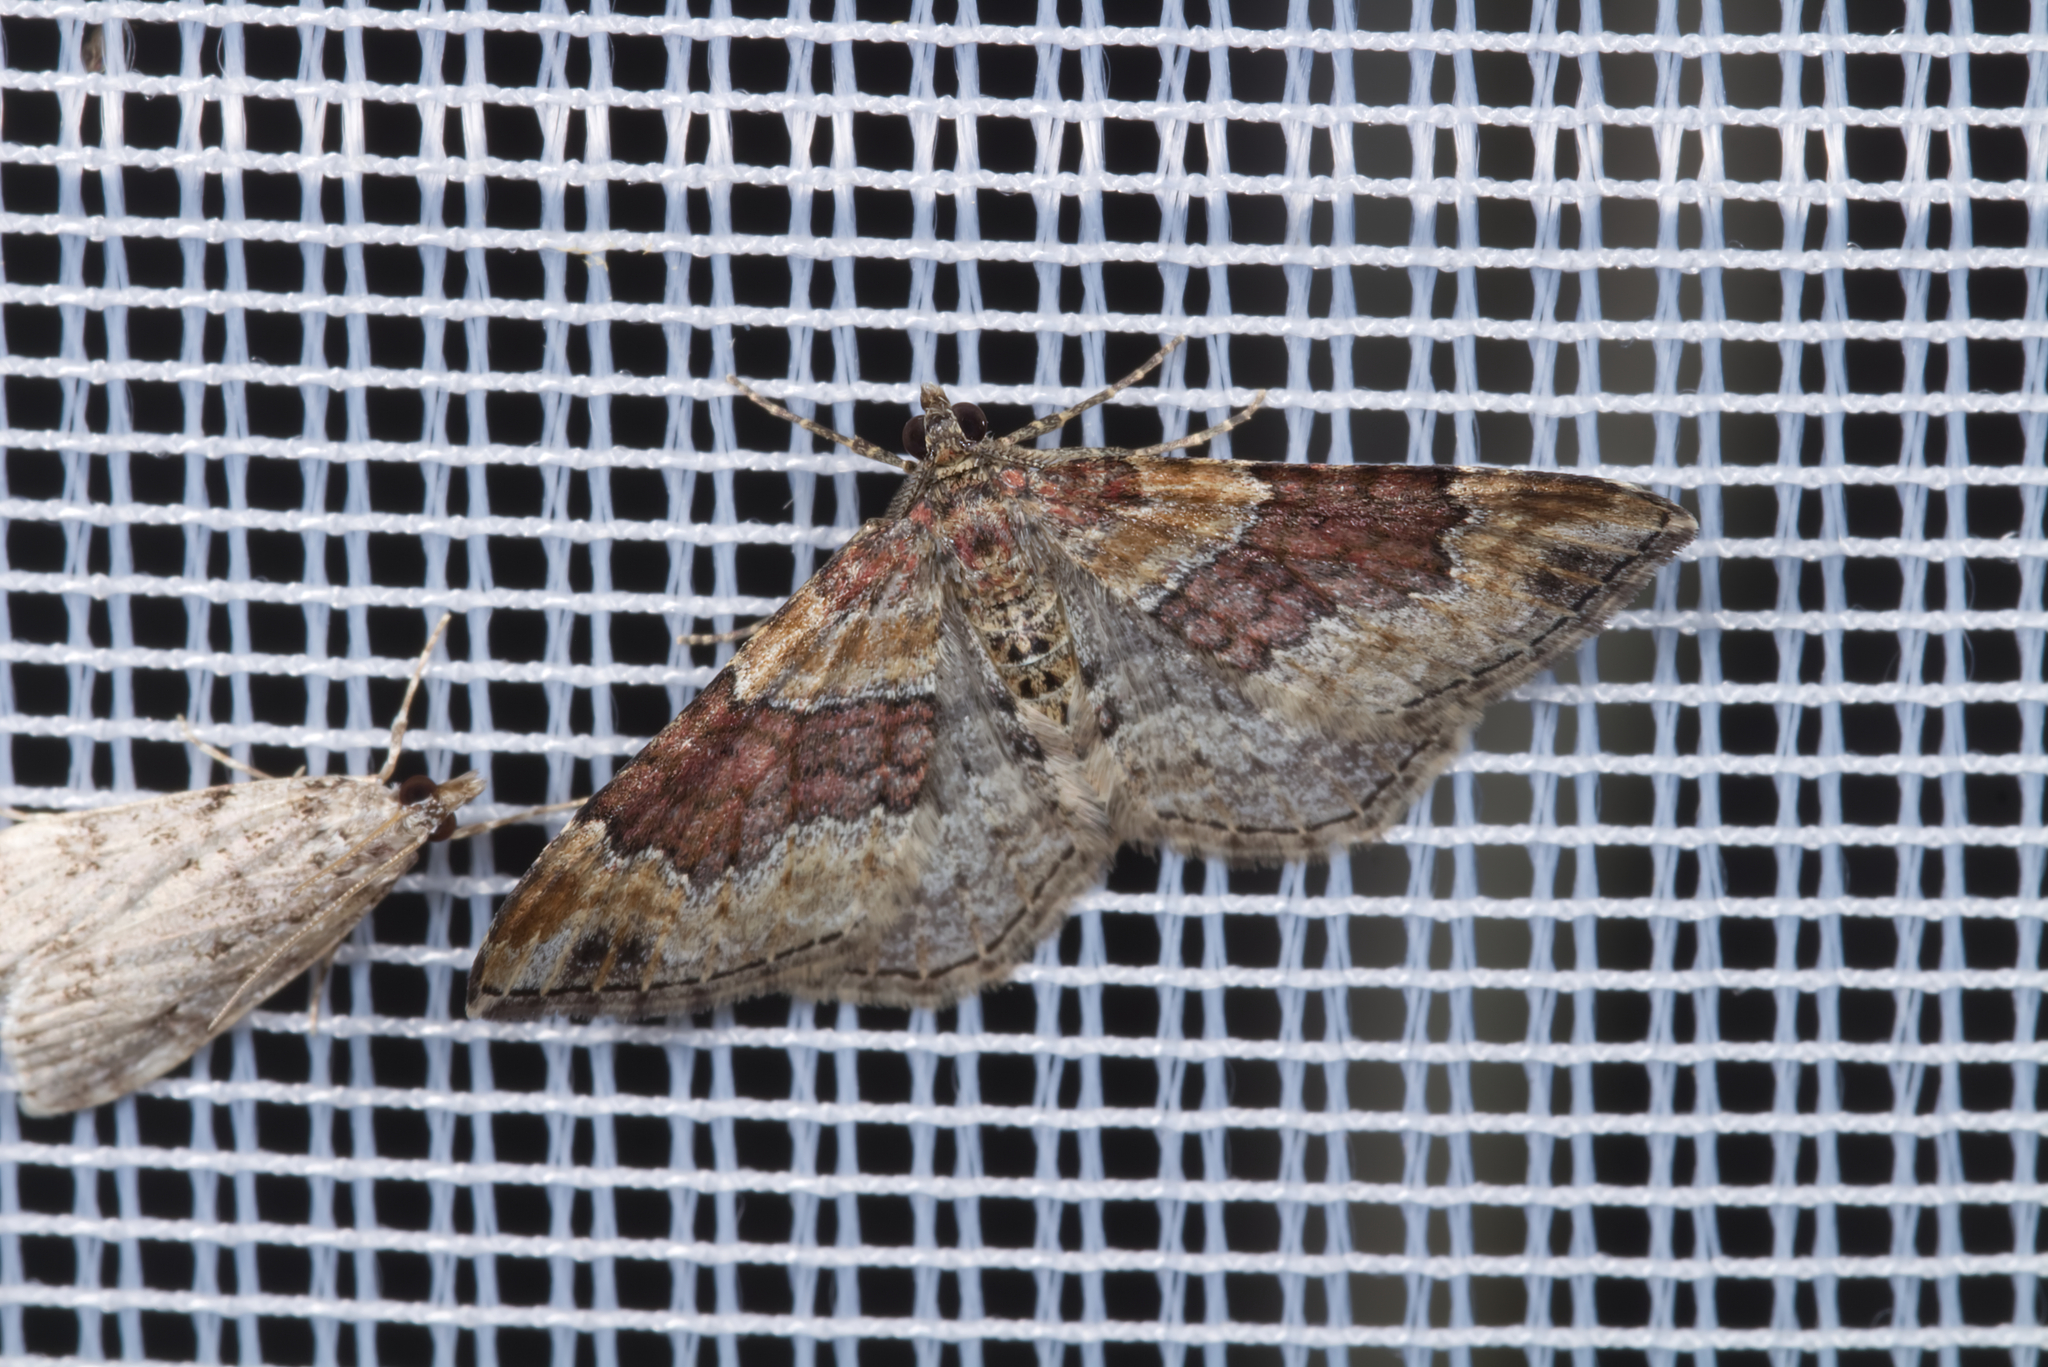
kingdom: Animalia
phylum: Arthropoda
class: Insecta
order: Lepidoptera
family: Geometridae
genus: Xanthorhoe
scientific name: Xanthorhoe spadicearia
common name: Red twin-spot carpet
